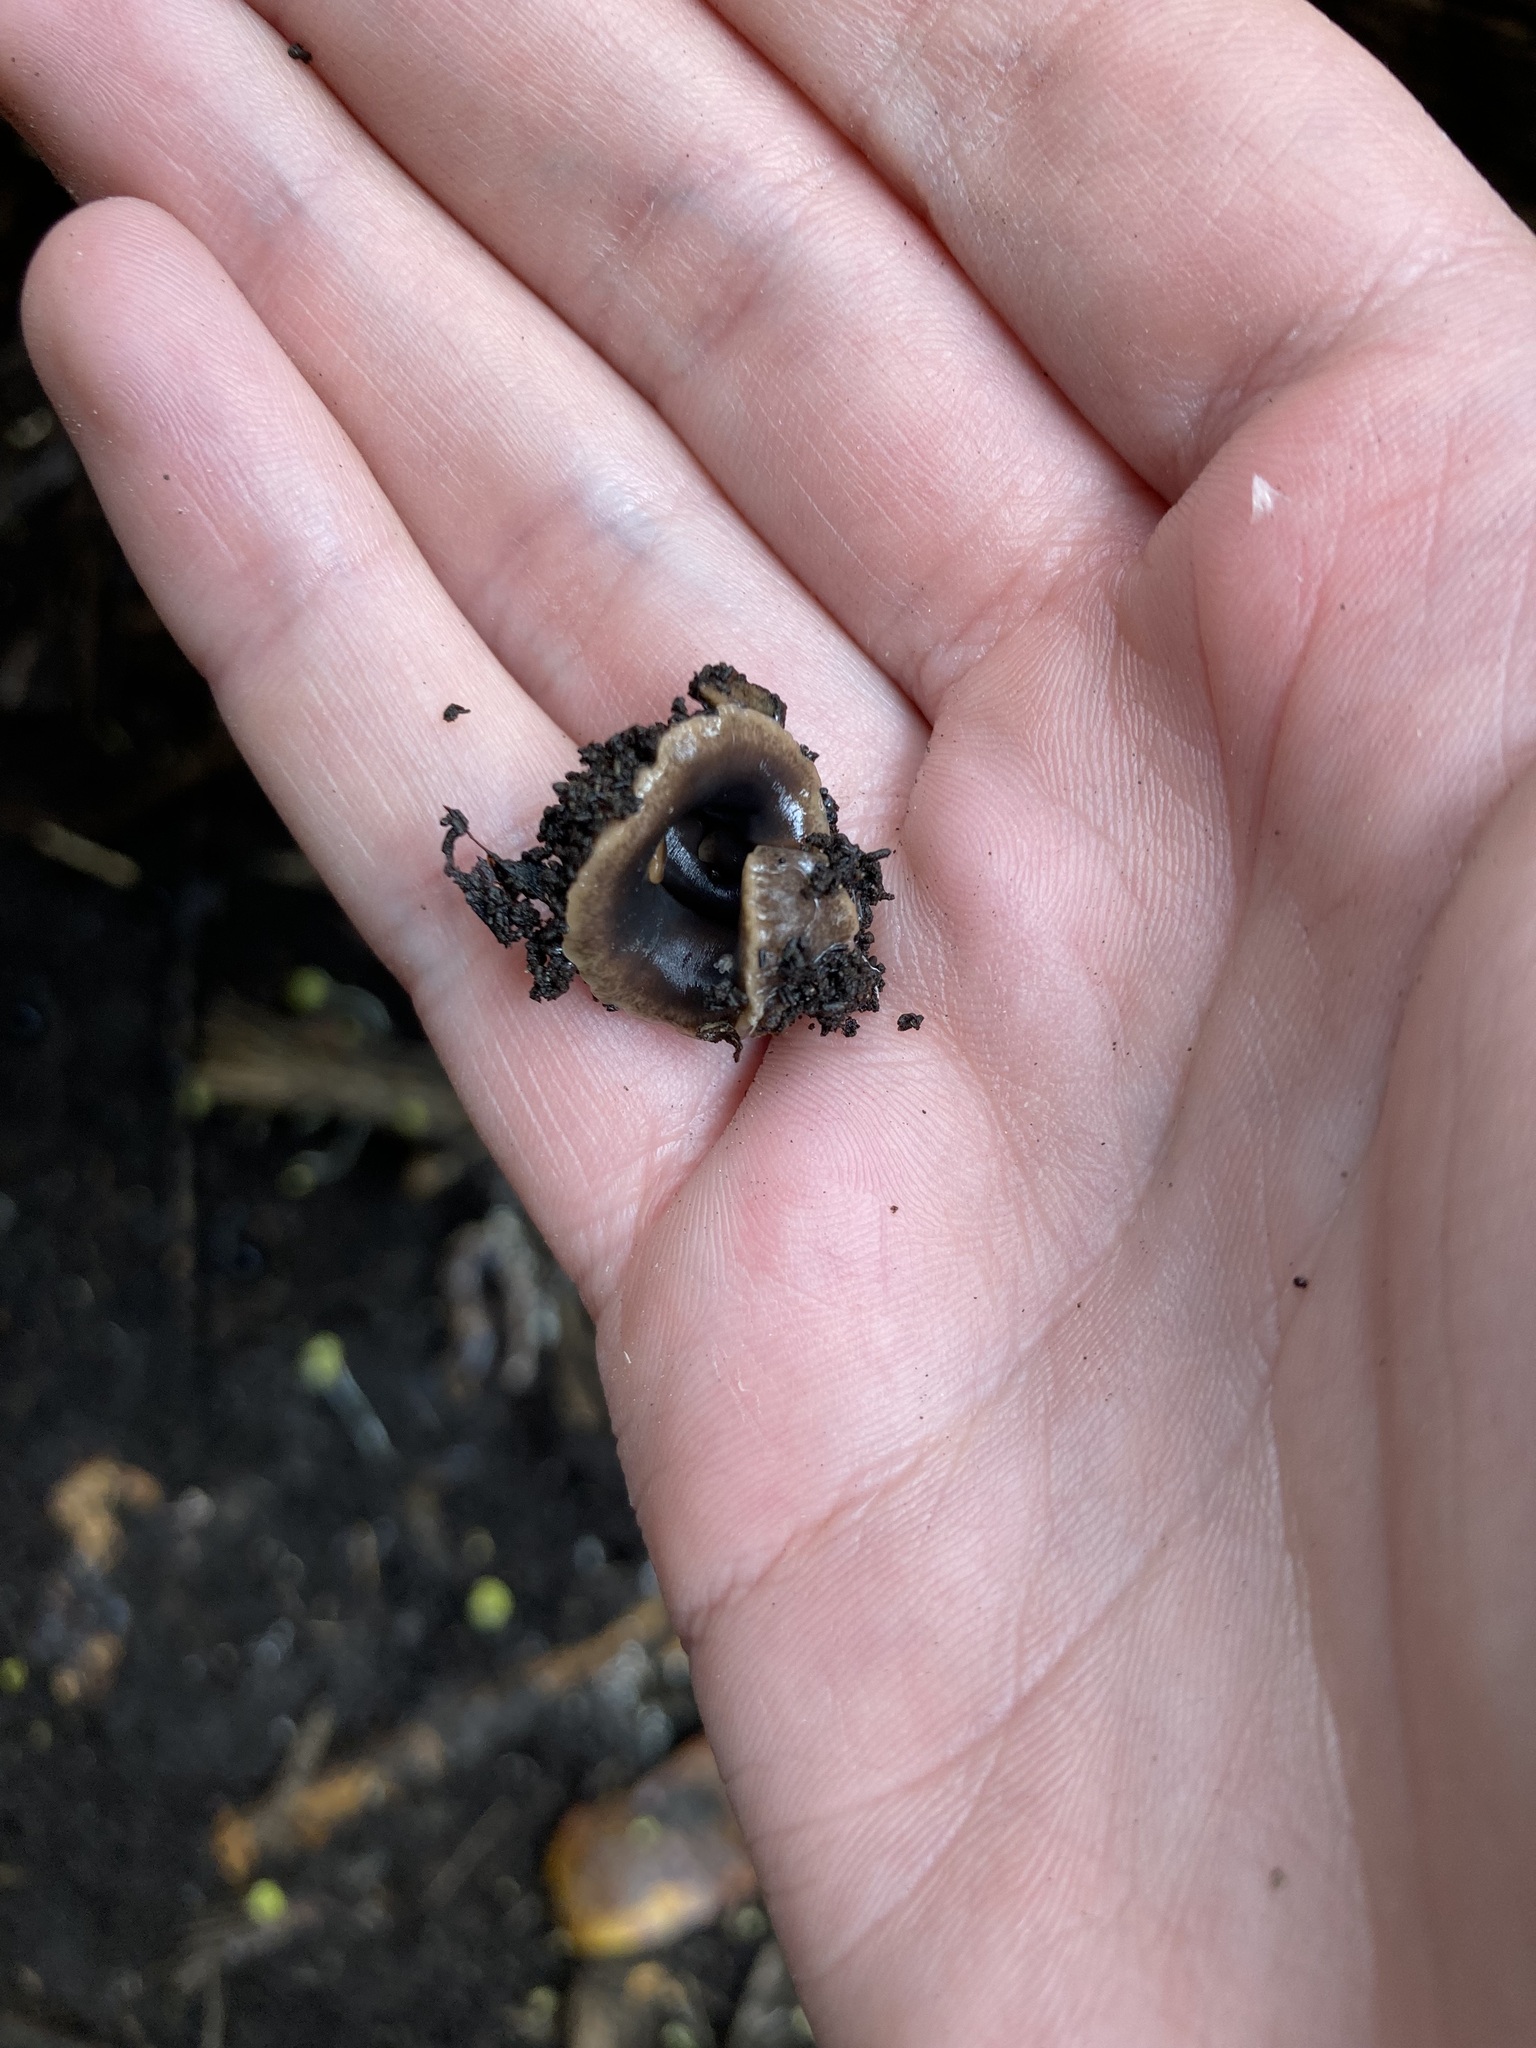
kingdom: Animalia
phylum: Platyhelminthes
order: Tricladida
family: Geoplanidae
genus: Arthurdendyus
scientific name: Arthurdendyus triangulatus
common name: New zealand flatworm
